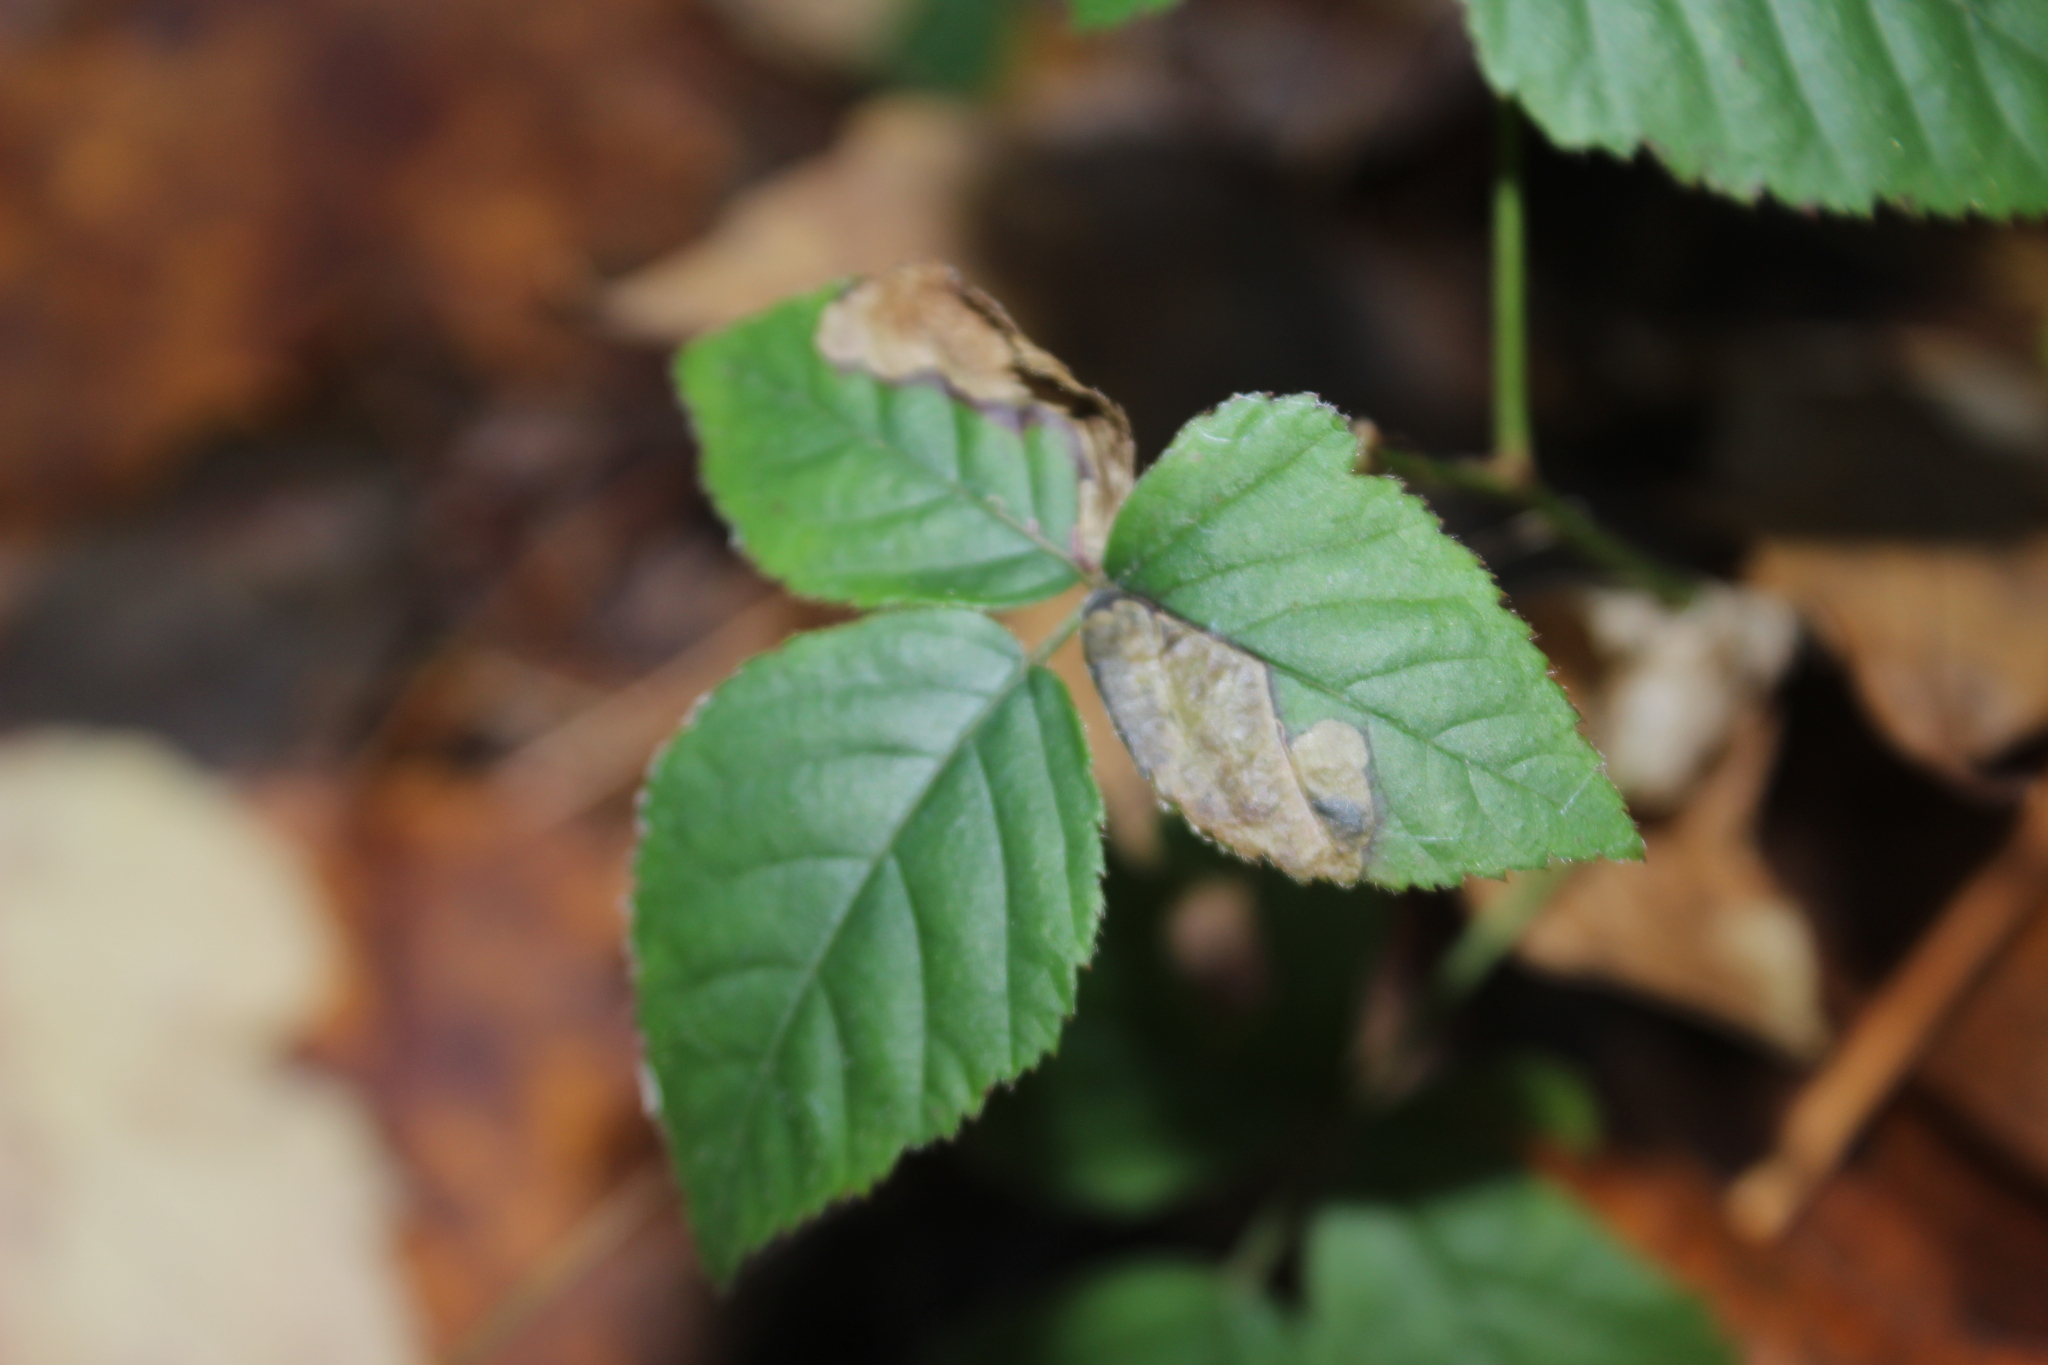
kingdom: Animalia
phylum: Arthropoda
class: Insecta
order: Lepidoptera
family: Nepticulidae
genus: Ectoedemia
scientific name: Ectoedemia rubifoliella
